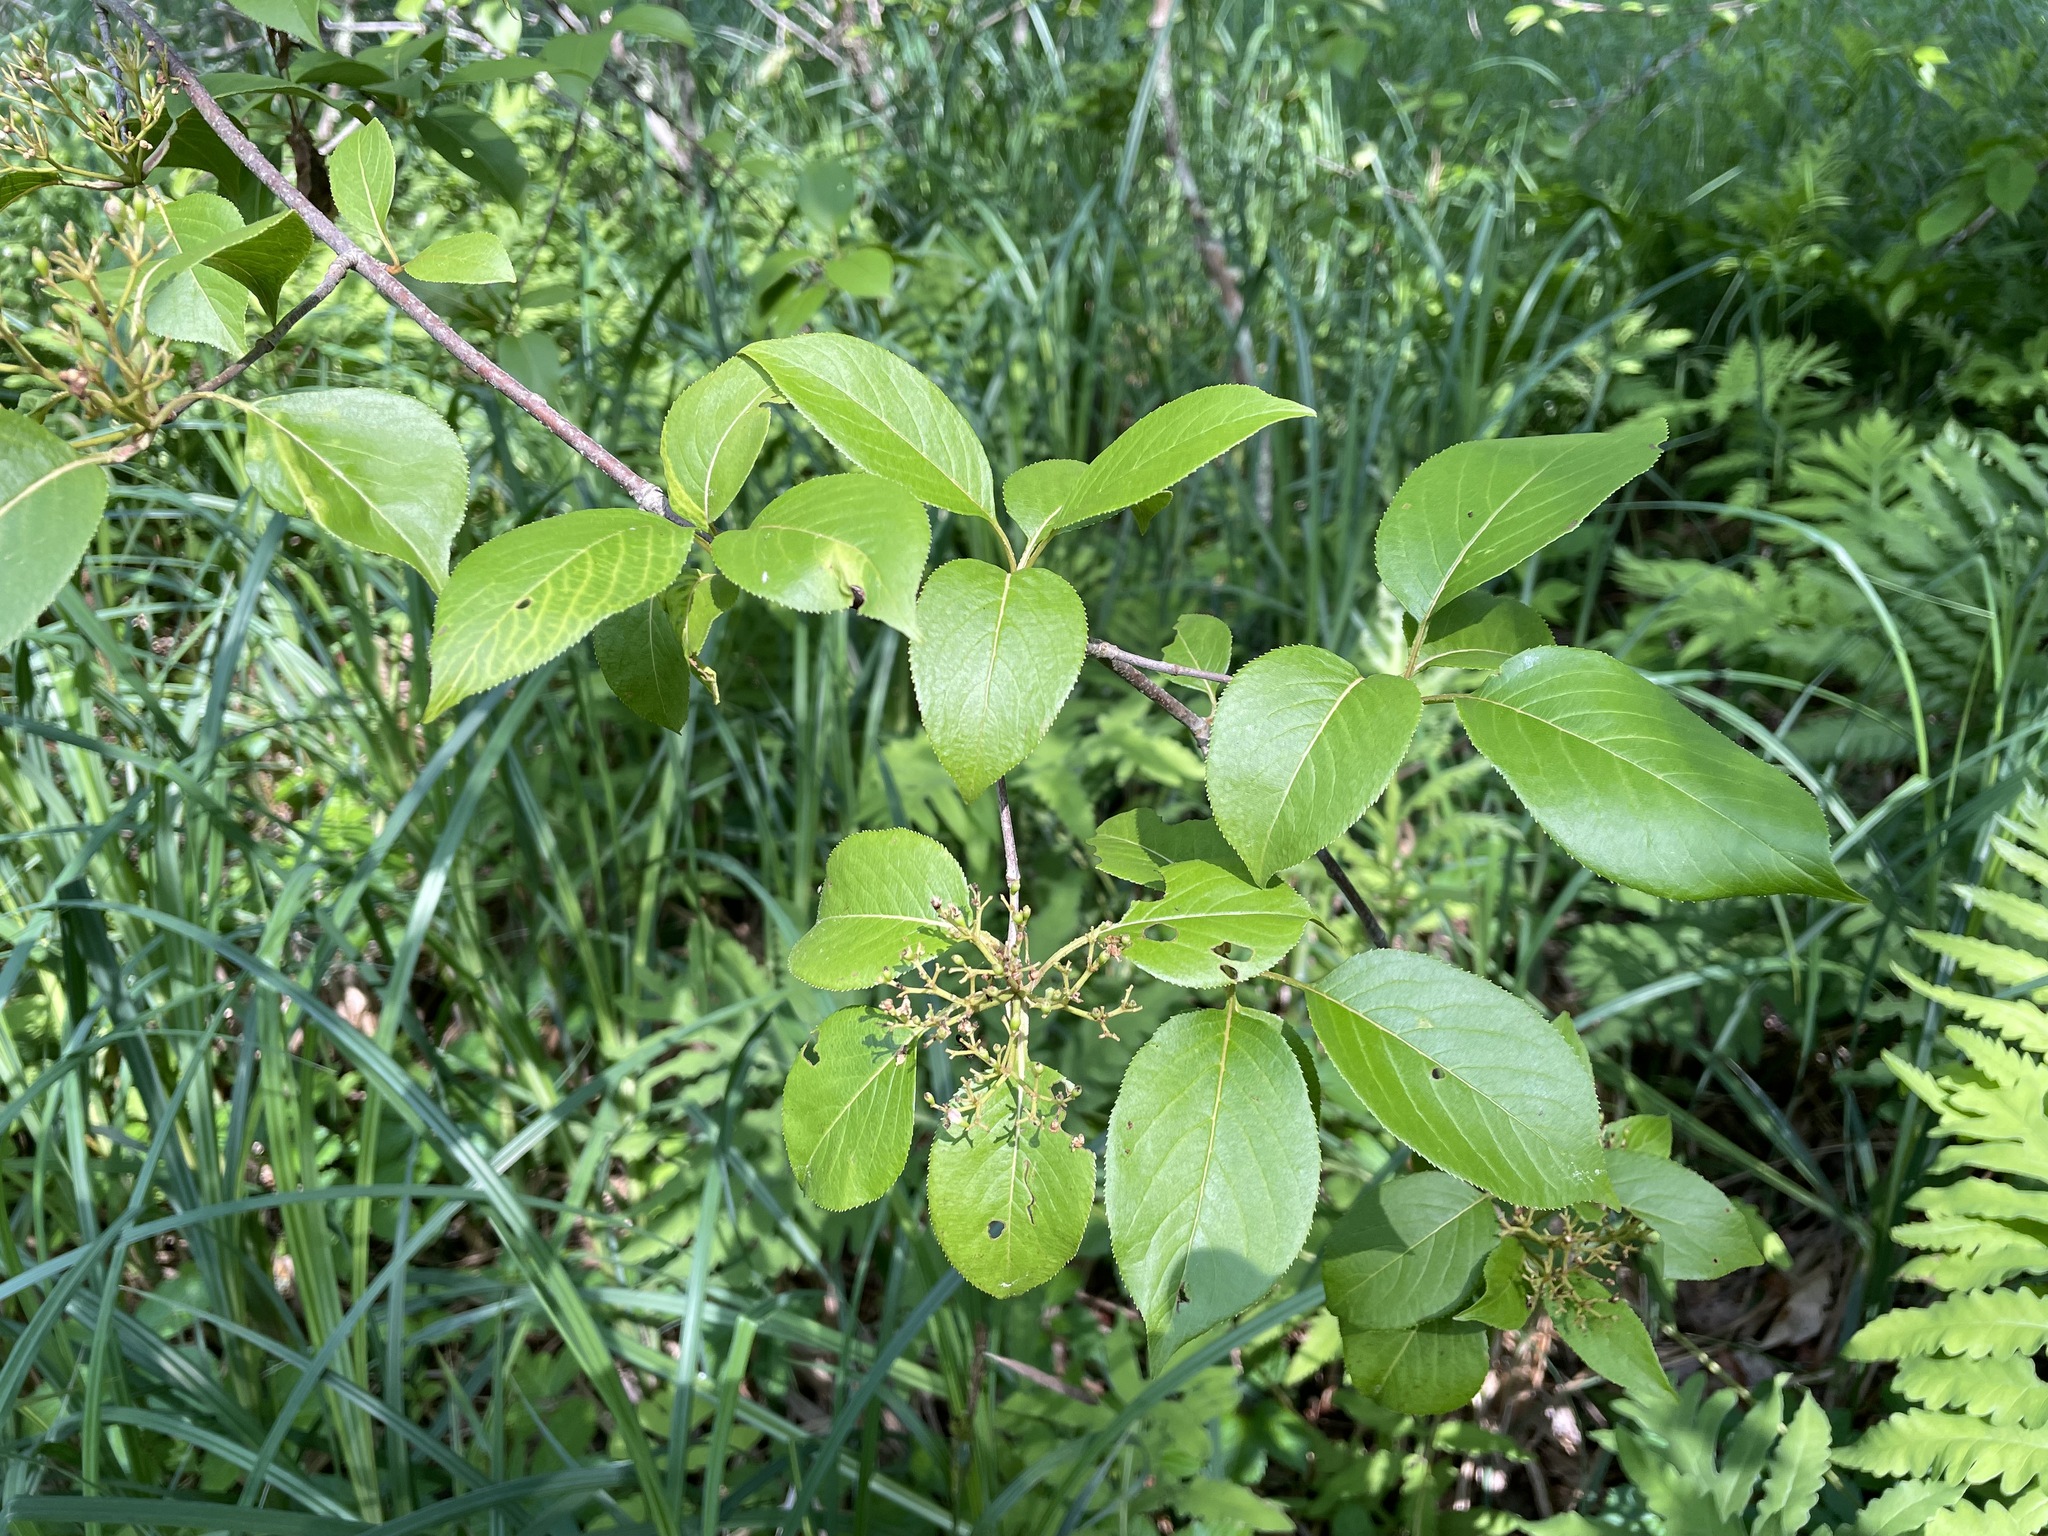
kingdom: Plantae
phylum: Tracheophyta
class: Magnoliopsida
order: Dipsacales
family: Viburnaceae
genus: Viburnum
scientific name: Viburnum lentago
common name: Black haw
